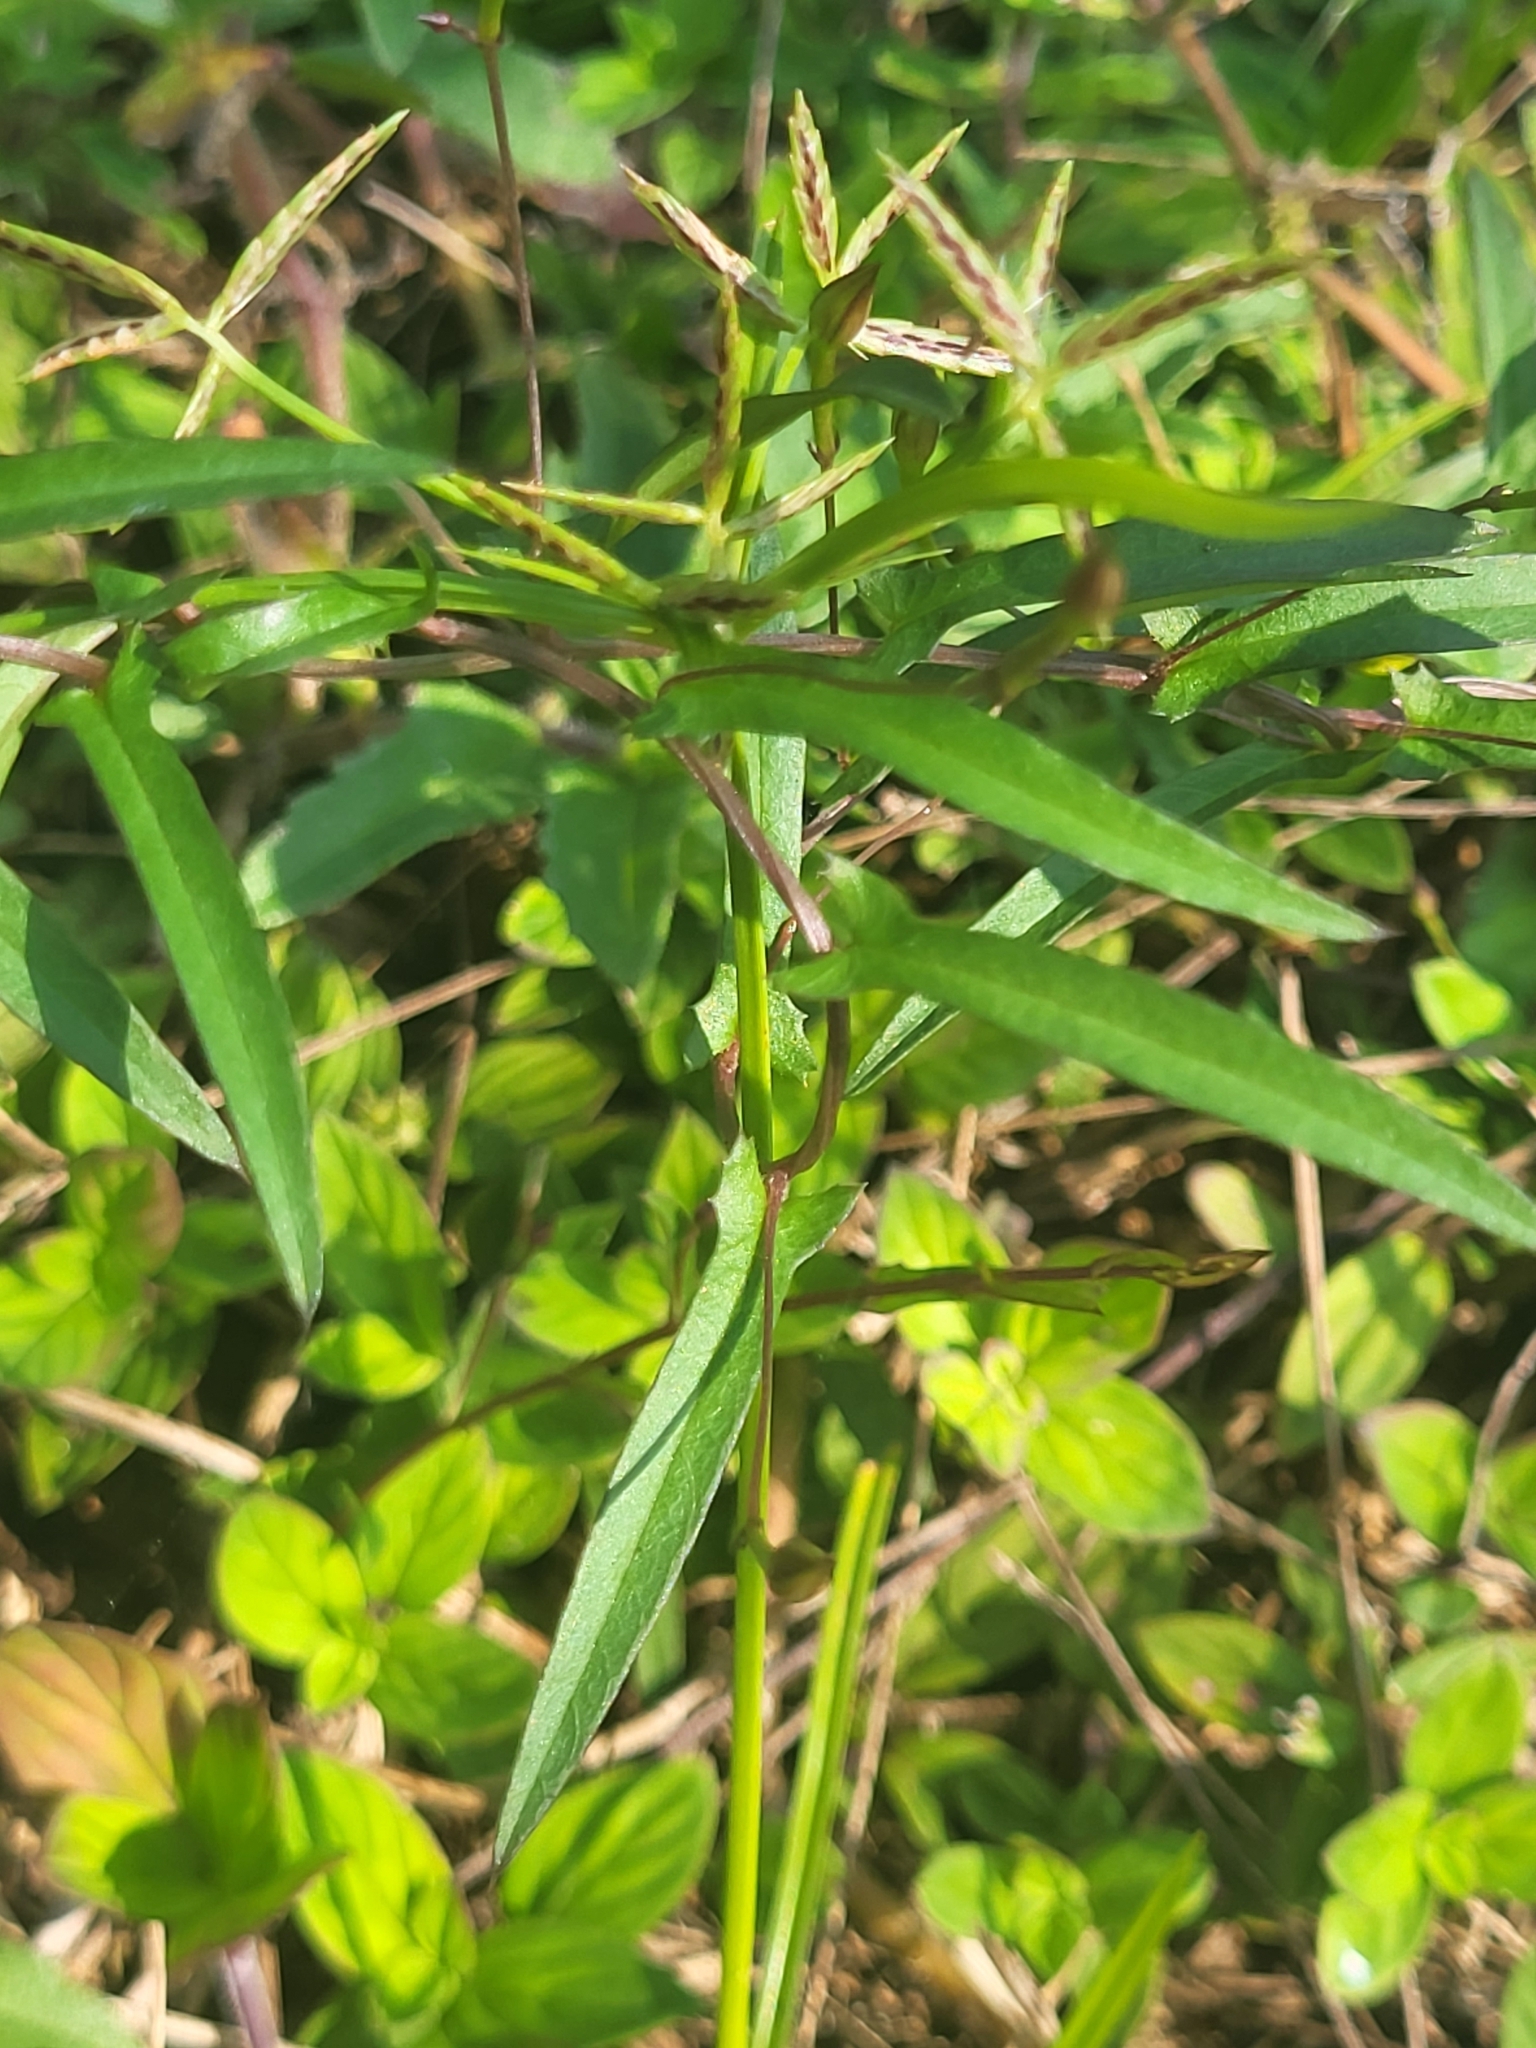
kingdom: Plantae
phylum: Tracheophyta
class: Magnoliopsida
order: Solanales
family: Convolvulaceae
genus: Xenostegia
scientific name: Xenostegia tridentata
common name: African morningvine
